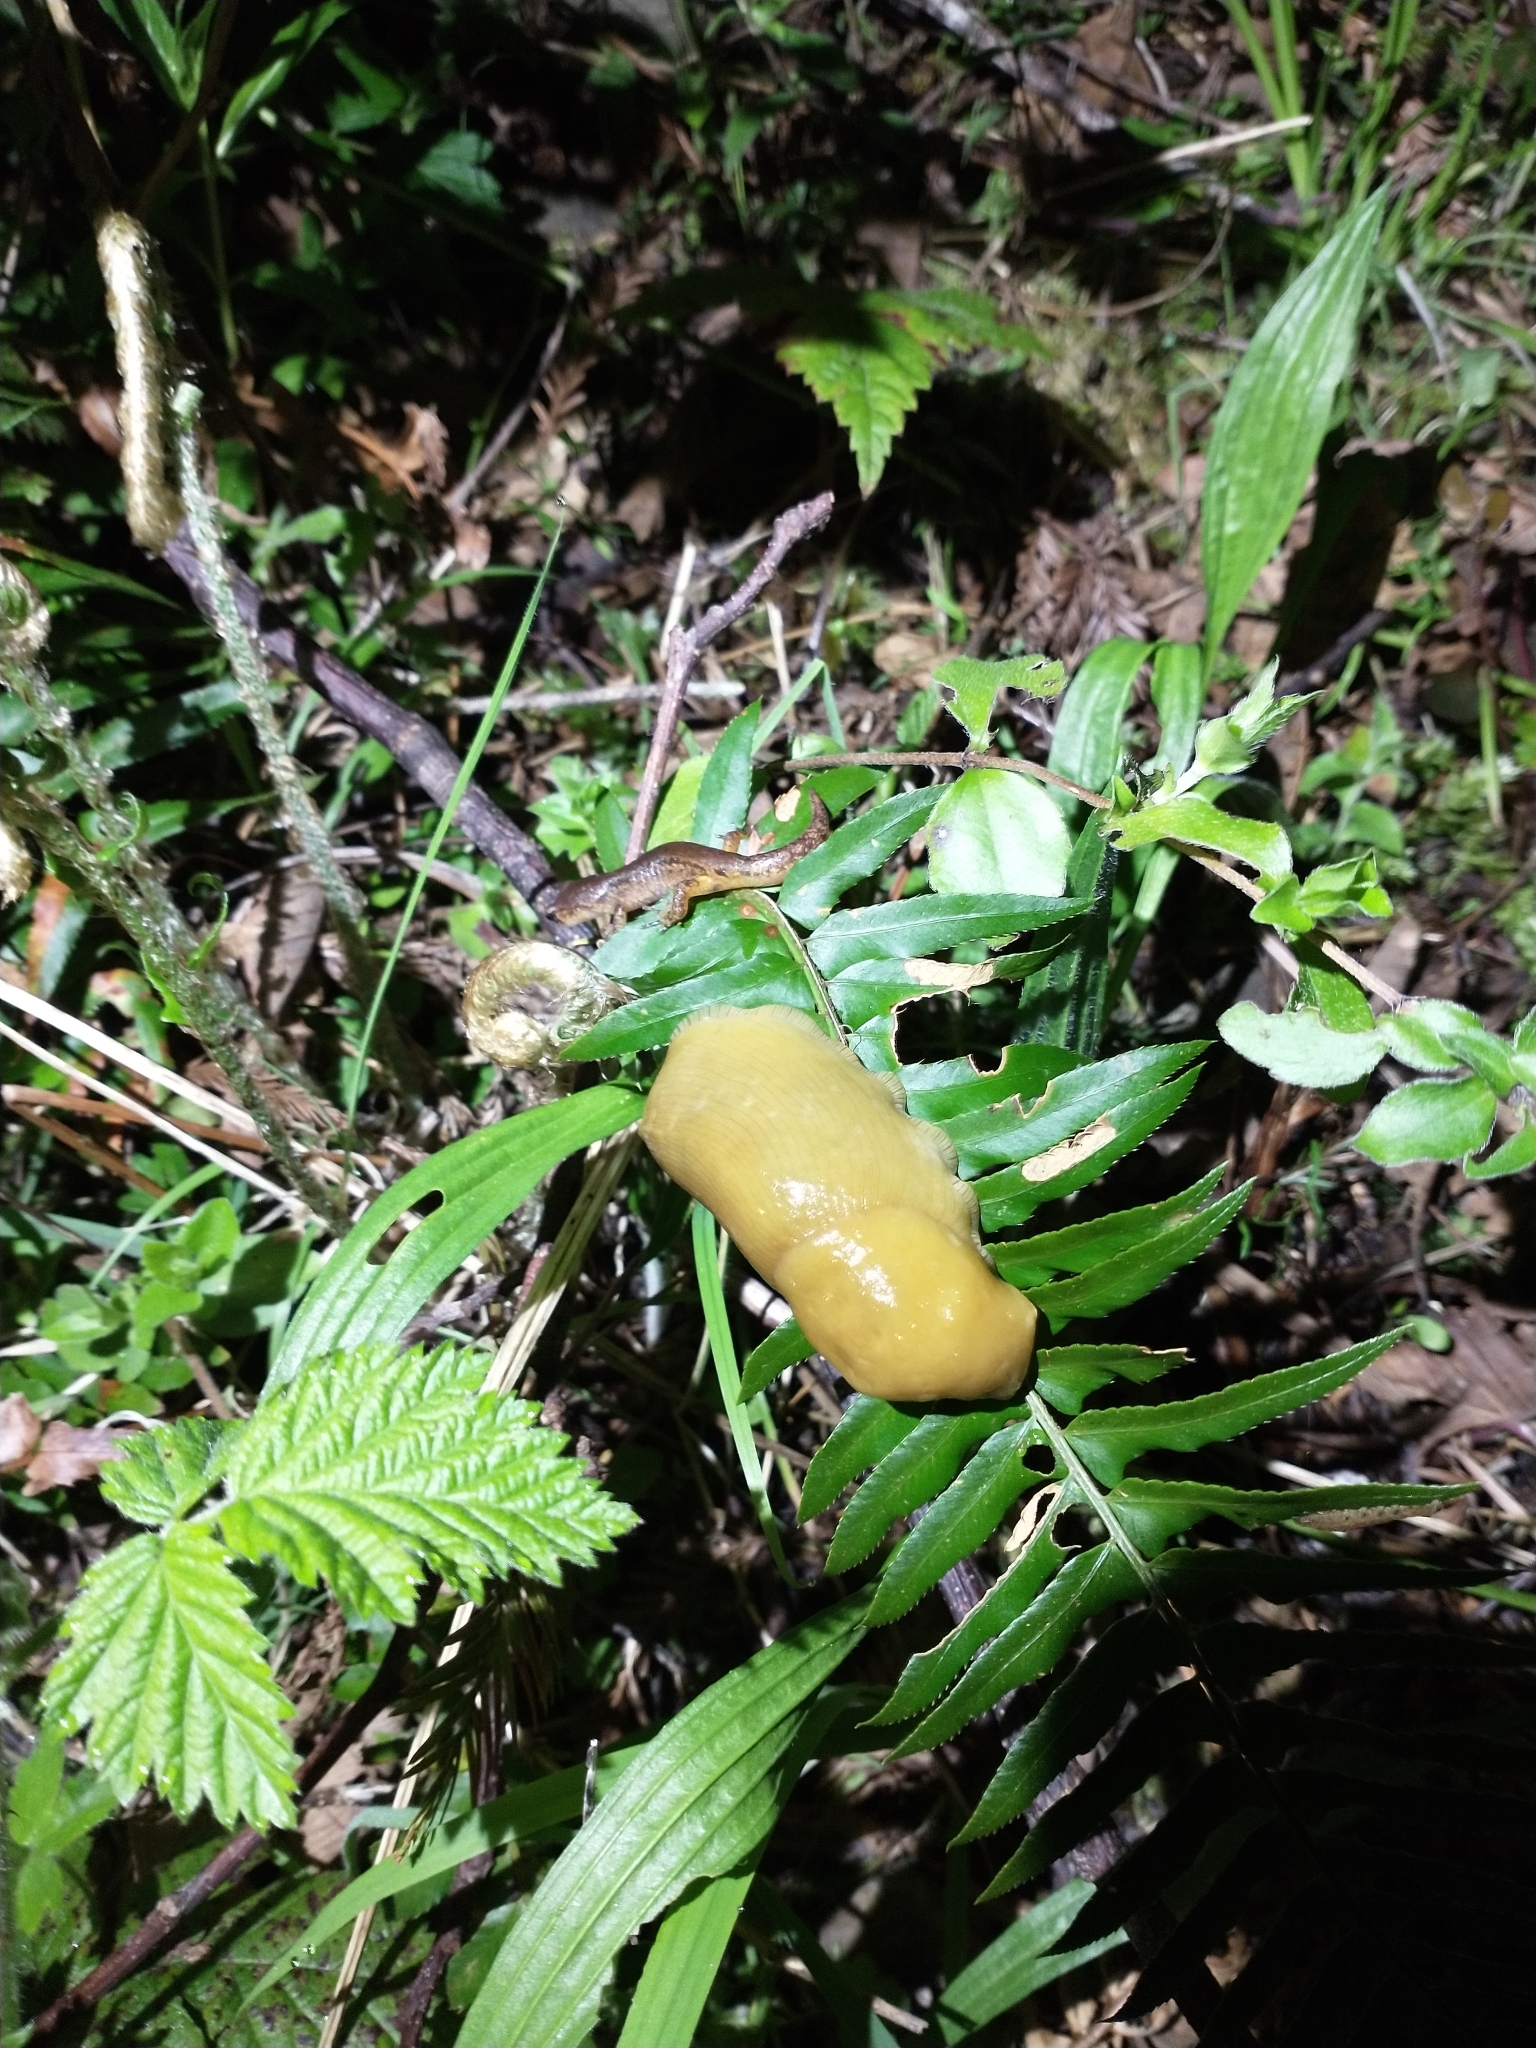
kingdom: Animalia
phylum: Mollusca
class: Gastropoda
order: Stylommatophora
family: Ariolimacidae
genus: Ariolimax
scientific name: Ariolimax columbianus
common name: Pacific banana slug
